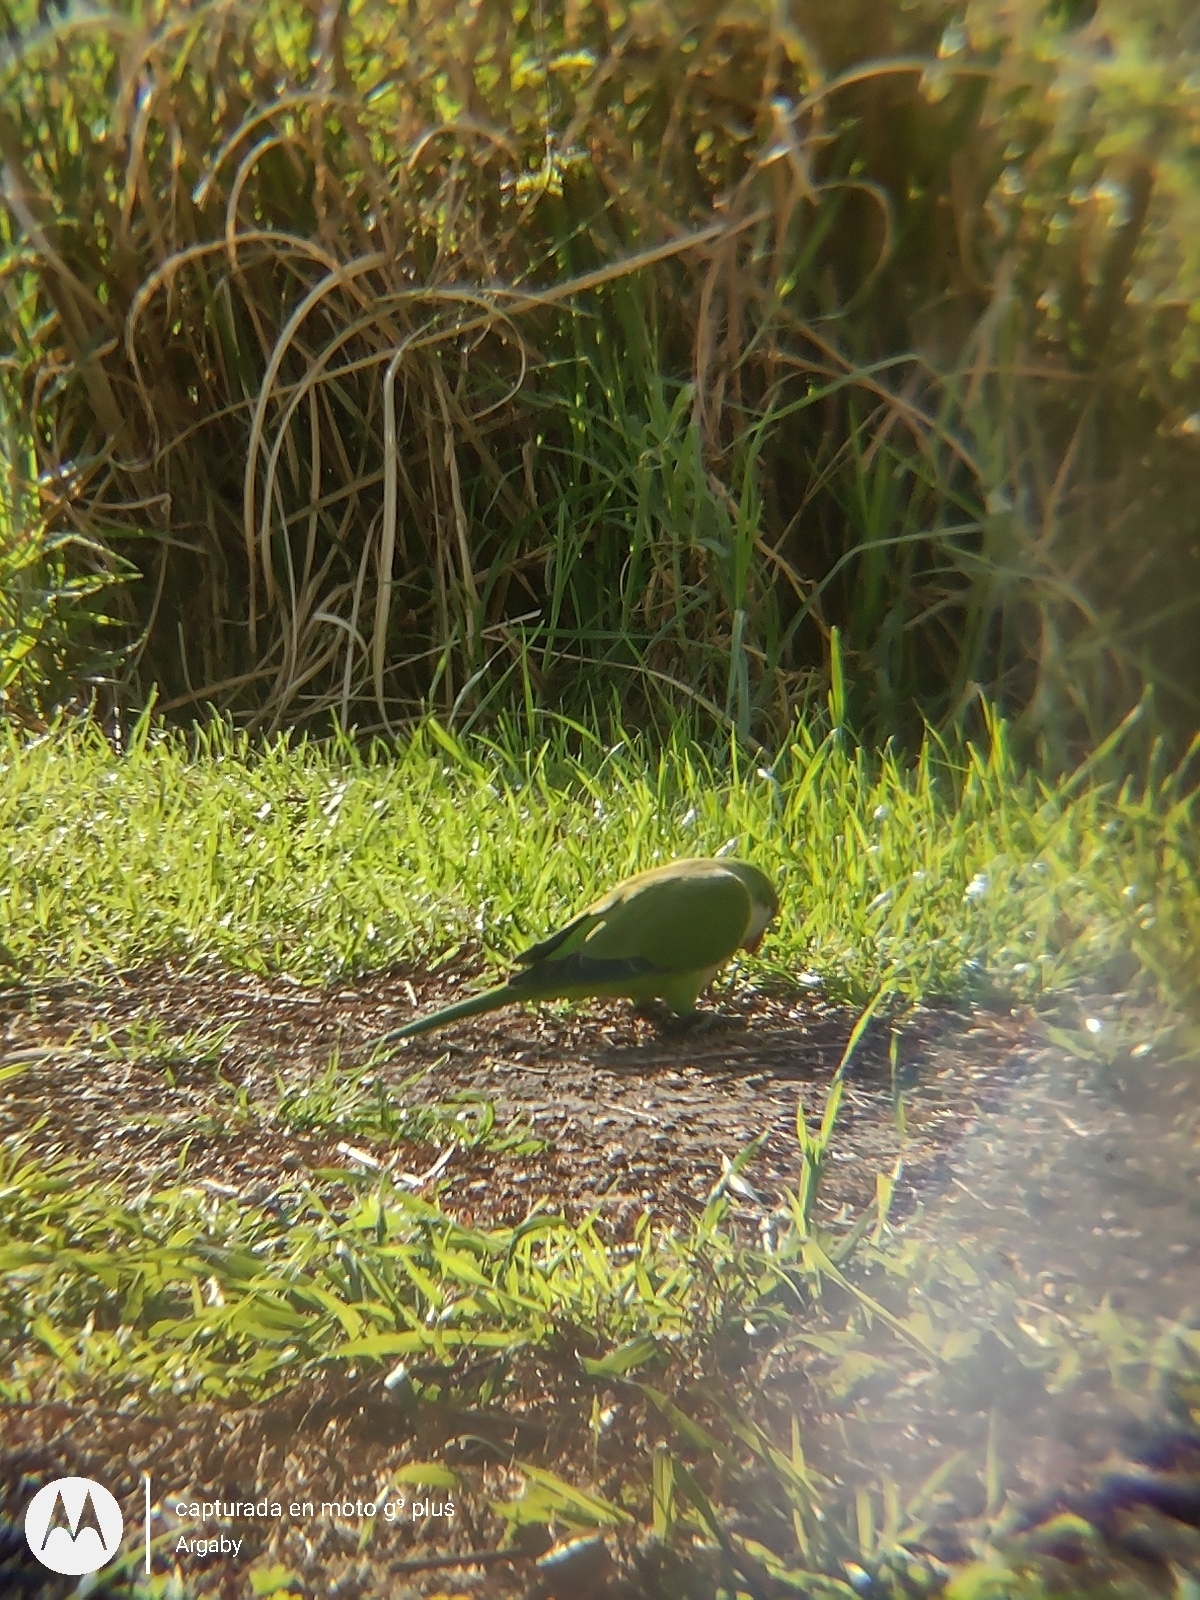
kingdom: Animalia
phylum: Chordata
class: Aves
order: Psittaciformes
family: Psittacidae
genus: Myiopsitta
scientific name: Myiopsitta monachus
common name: Monk parakeet
